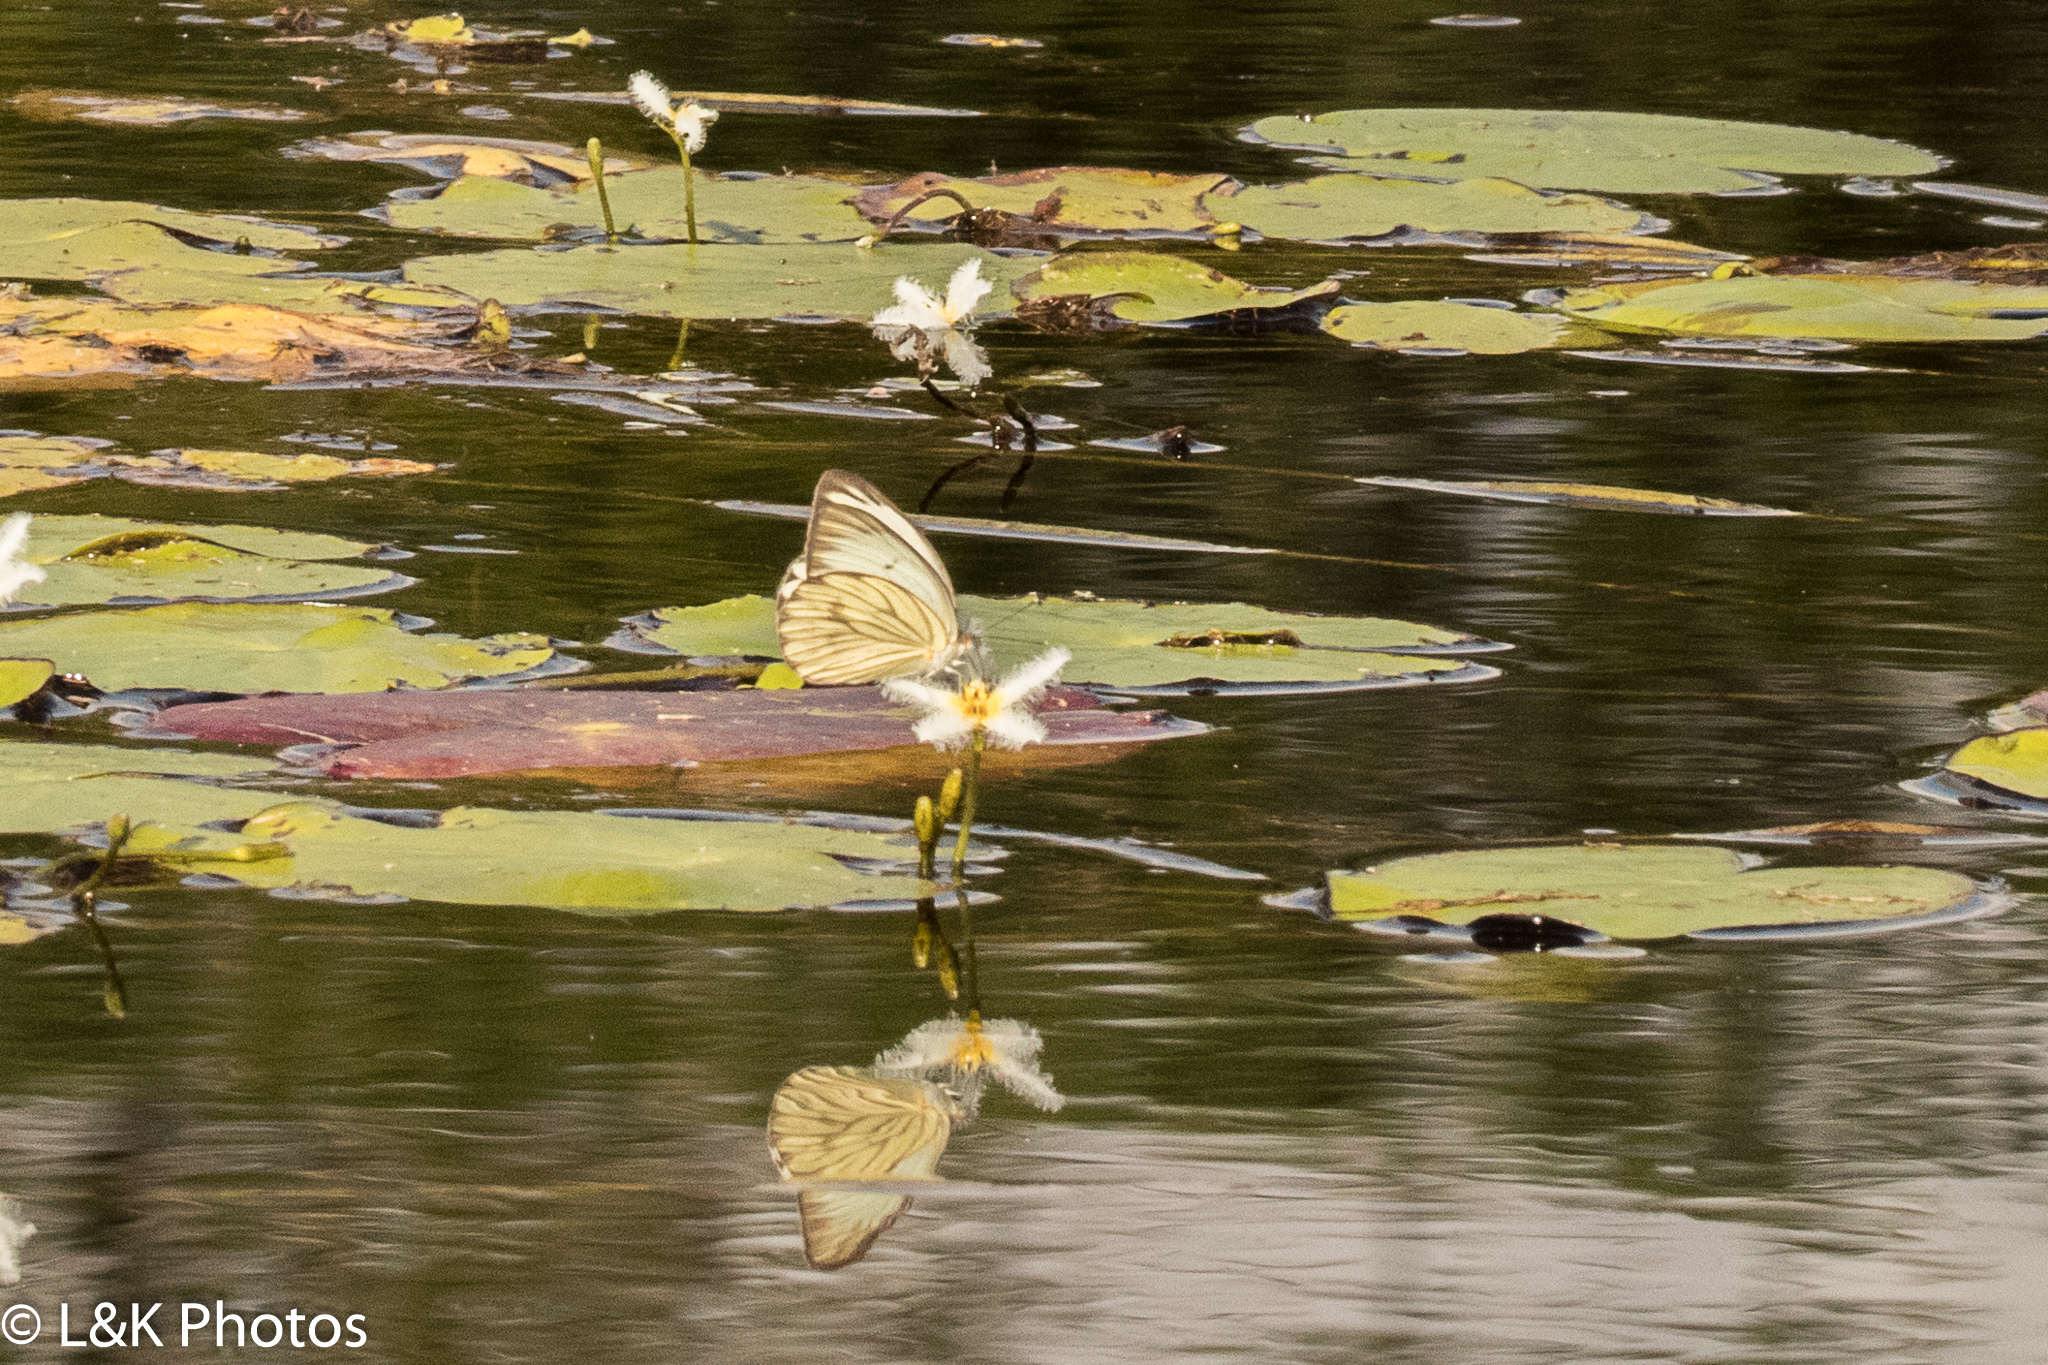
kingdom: Animalia
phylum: Arthropoda
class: Insecta
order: Lepidoptera
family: Pieridae
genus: Ascia
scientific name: Ascia monuste
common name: Great southern white
